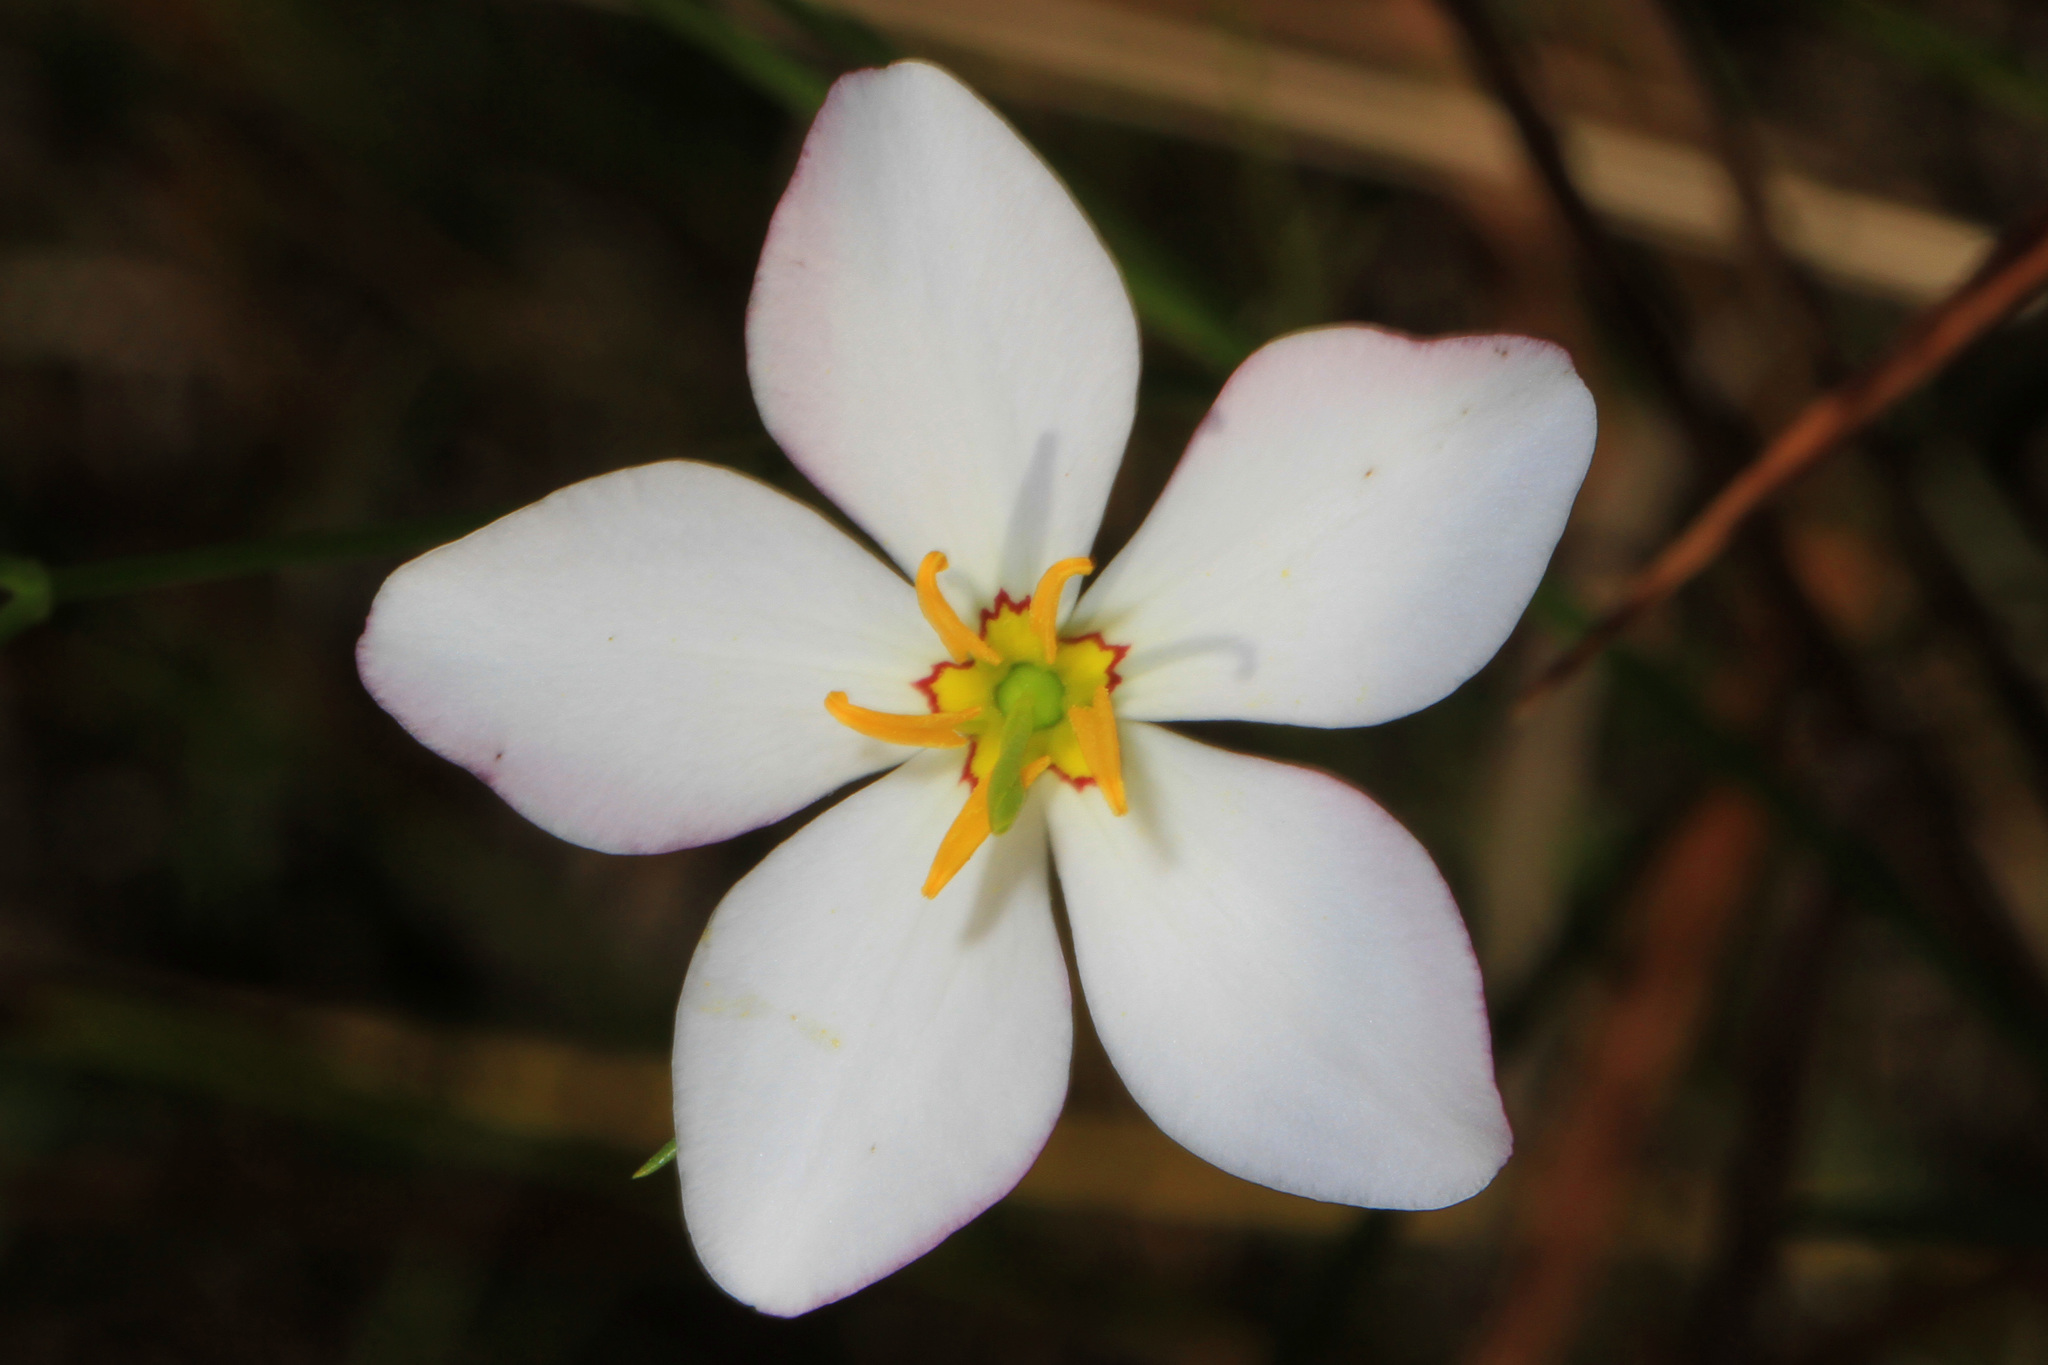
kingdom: Plantae
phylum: Tracheophyta
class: Magnoliopsida
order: Gentianales
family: Gentianaceae
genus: Sabatia
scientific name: Sabatia stellaris
